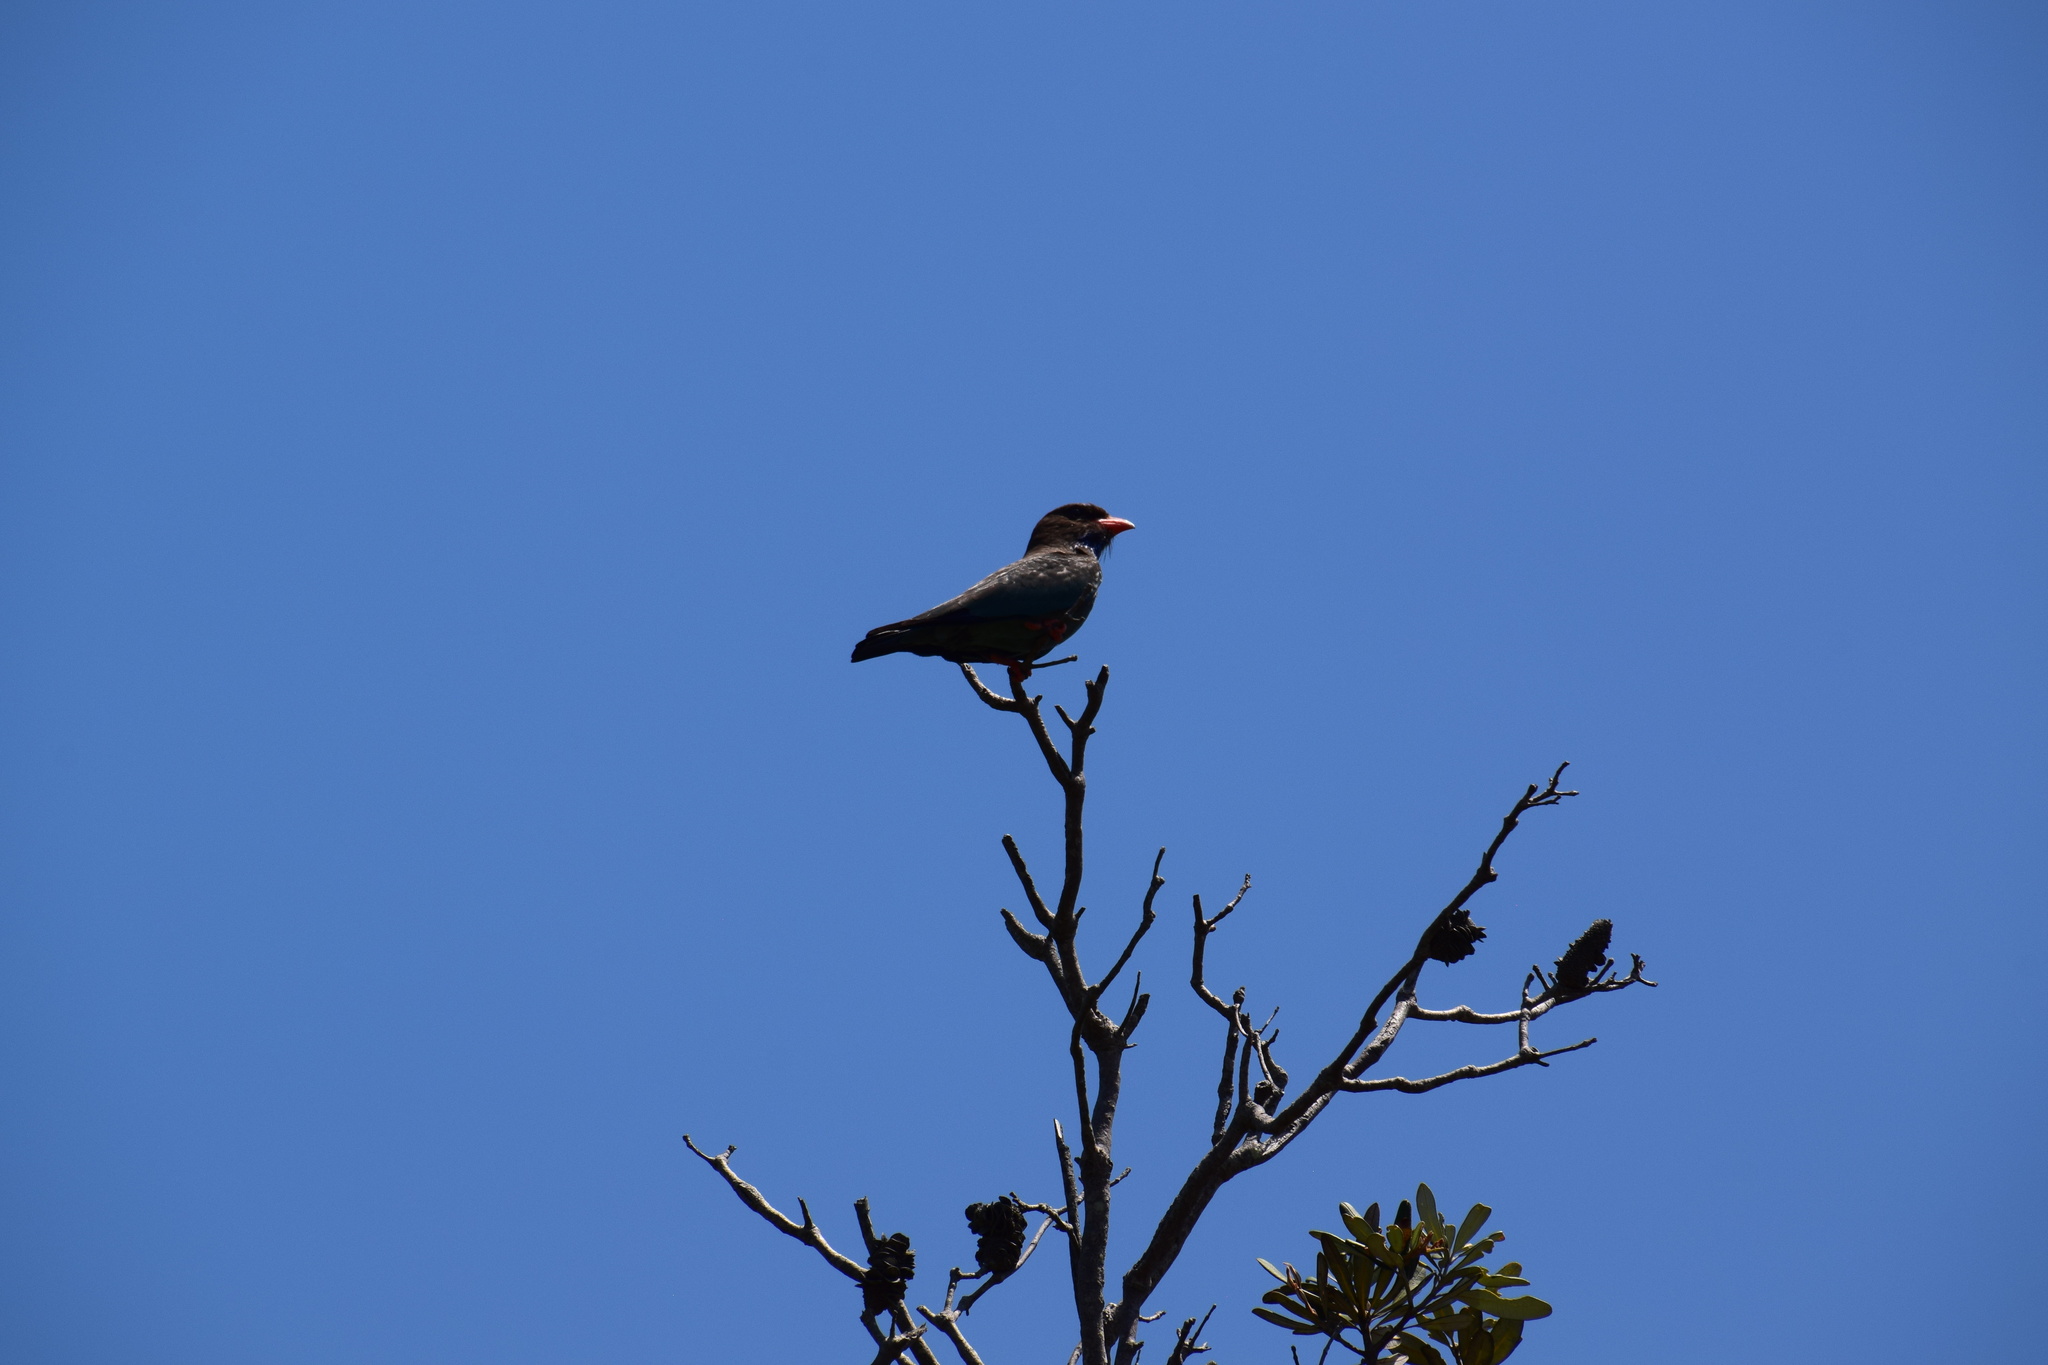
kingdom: Animalia
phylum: Chordata
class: Aves
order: Coraciiformes
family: Coraciidae
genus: Eurystomus
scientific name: Eurystomus orientalis
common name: Oriental dollarbird
